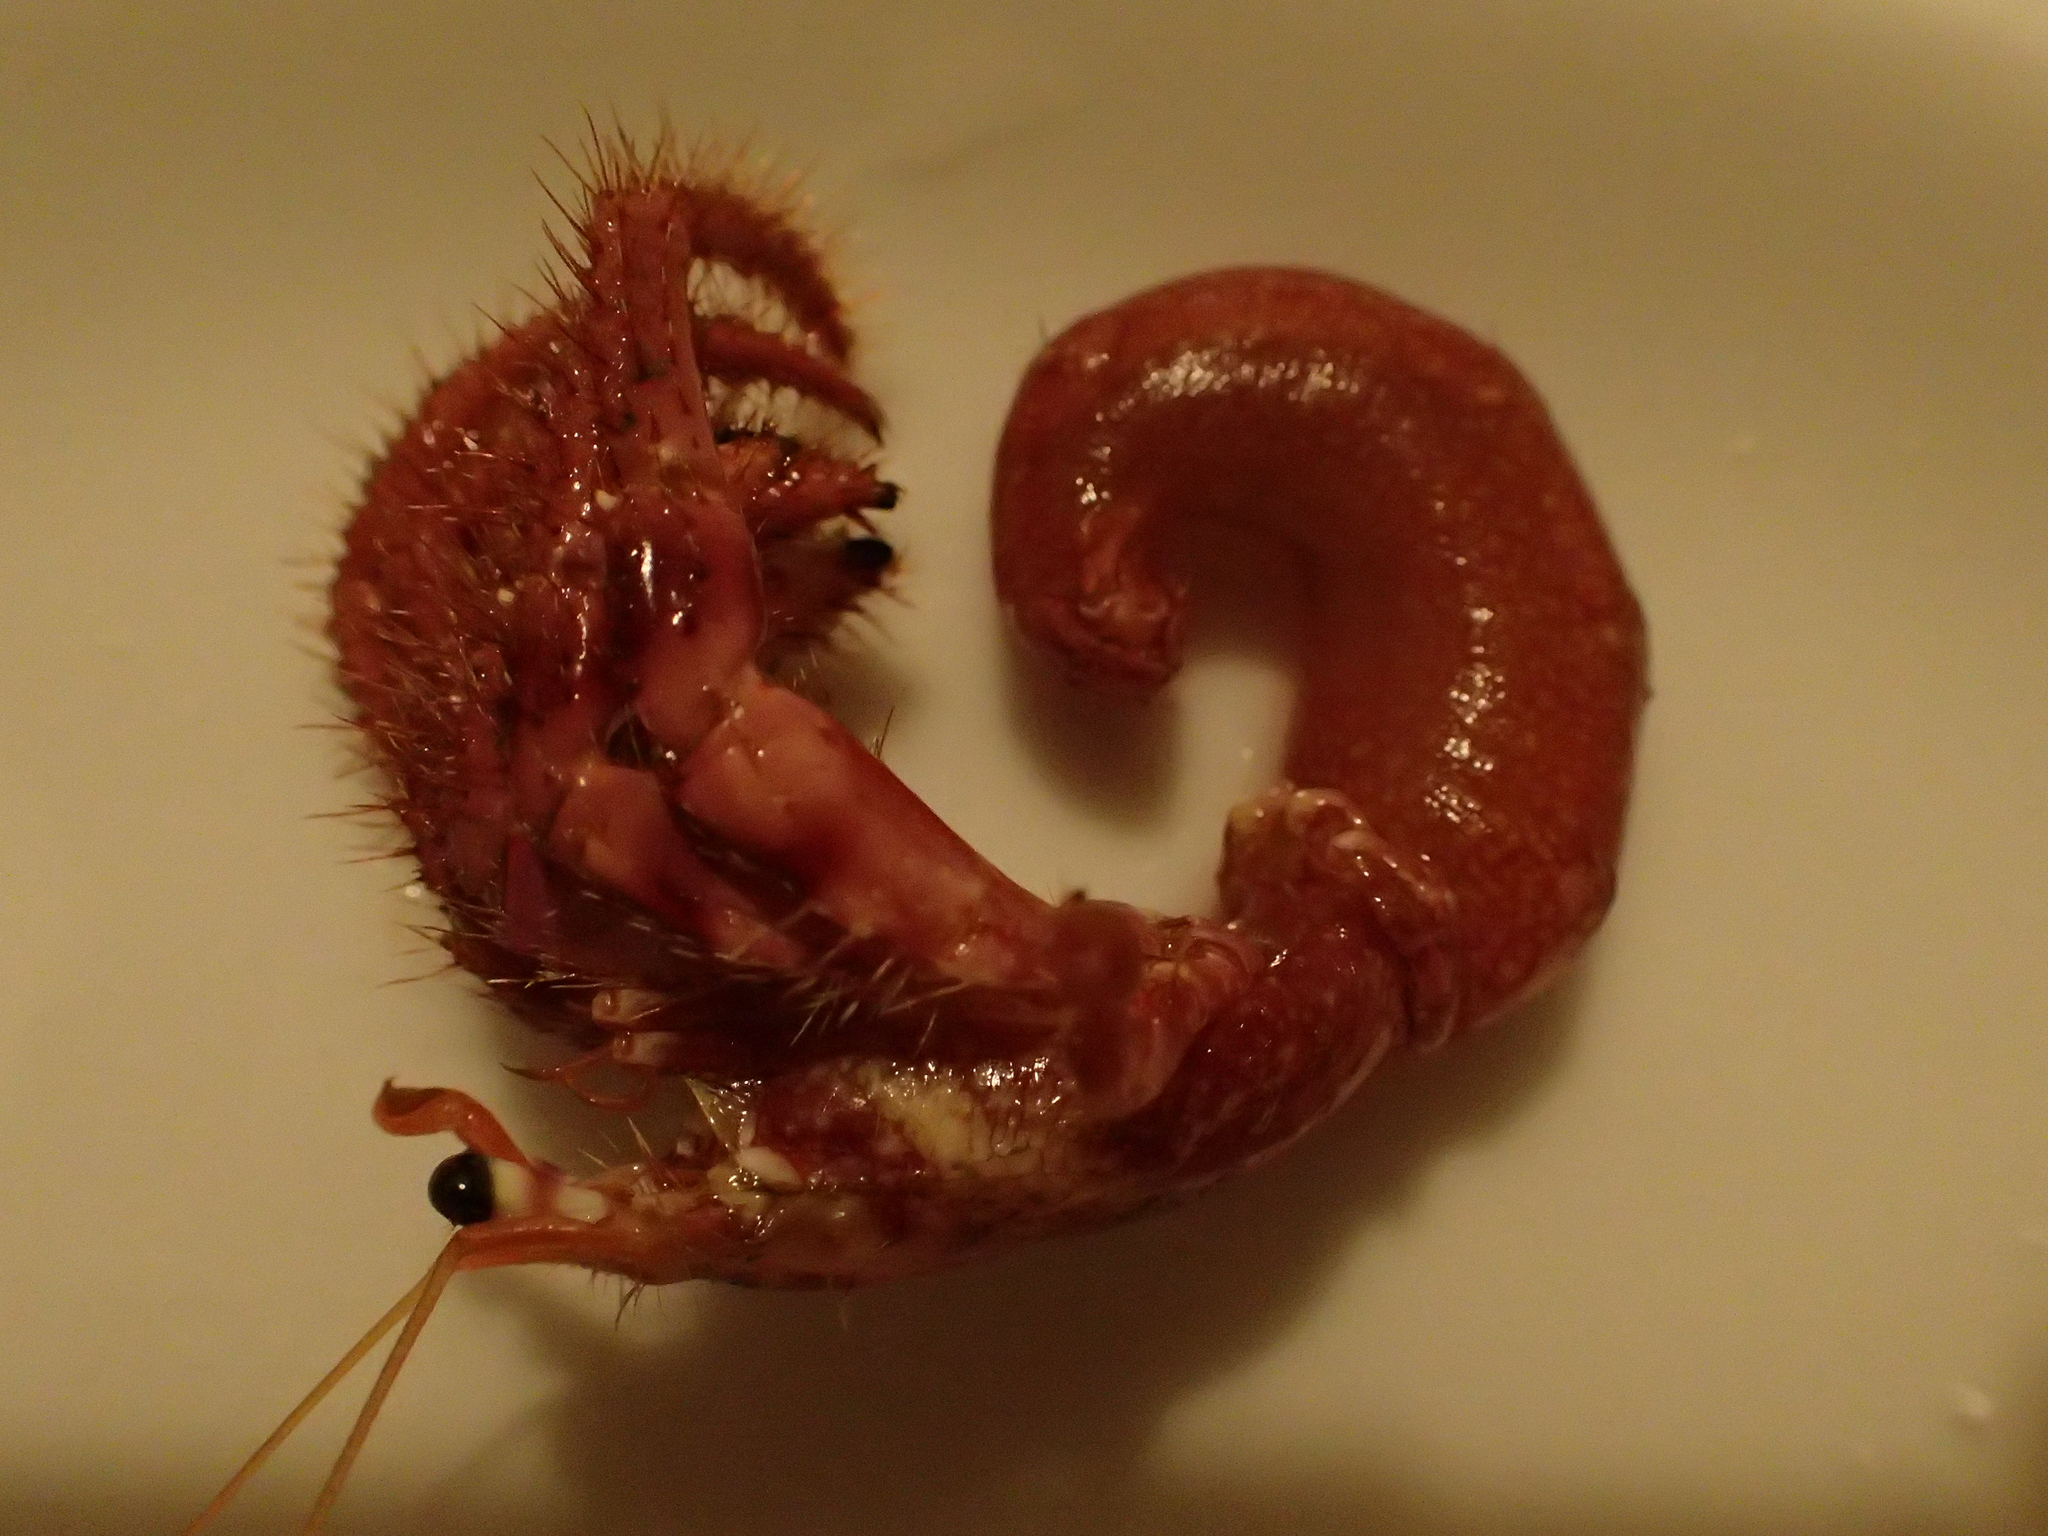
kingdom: Animalia
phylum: Arthropoda
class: Malacostraca
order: Decapoda
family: Diogenidae
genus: Dardanus
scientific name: Dardanus calidus
